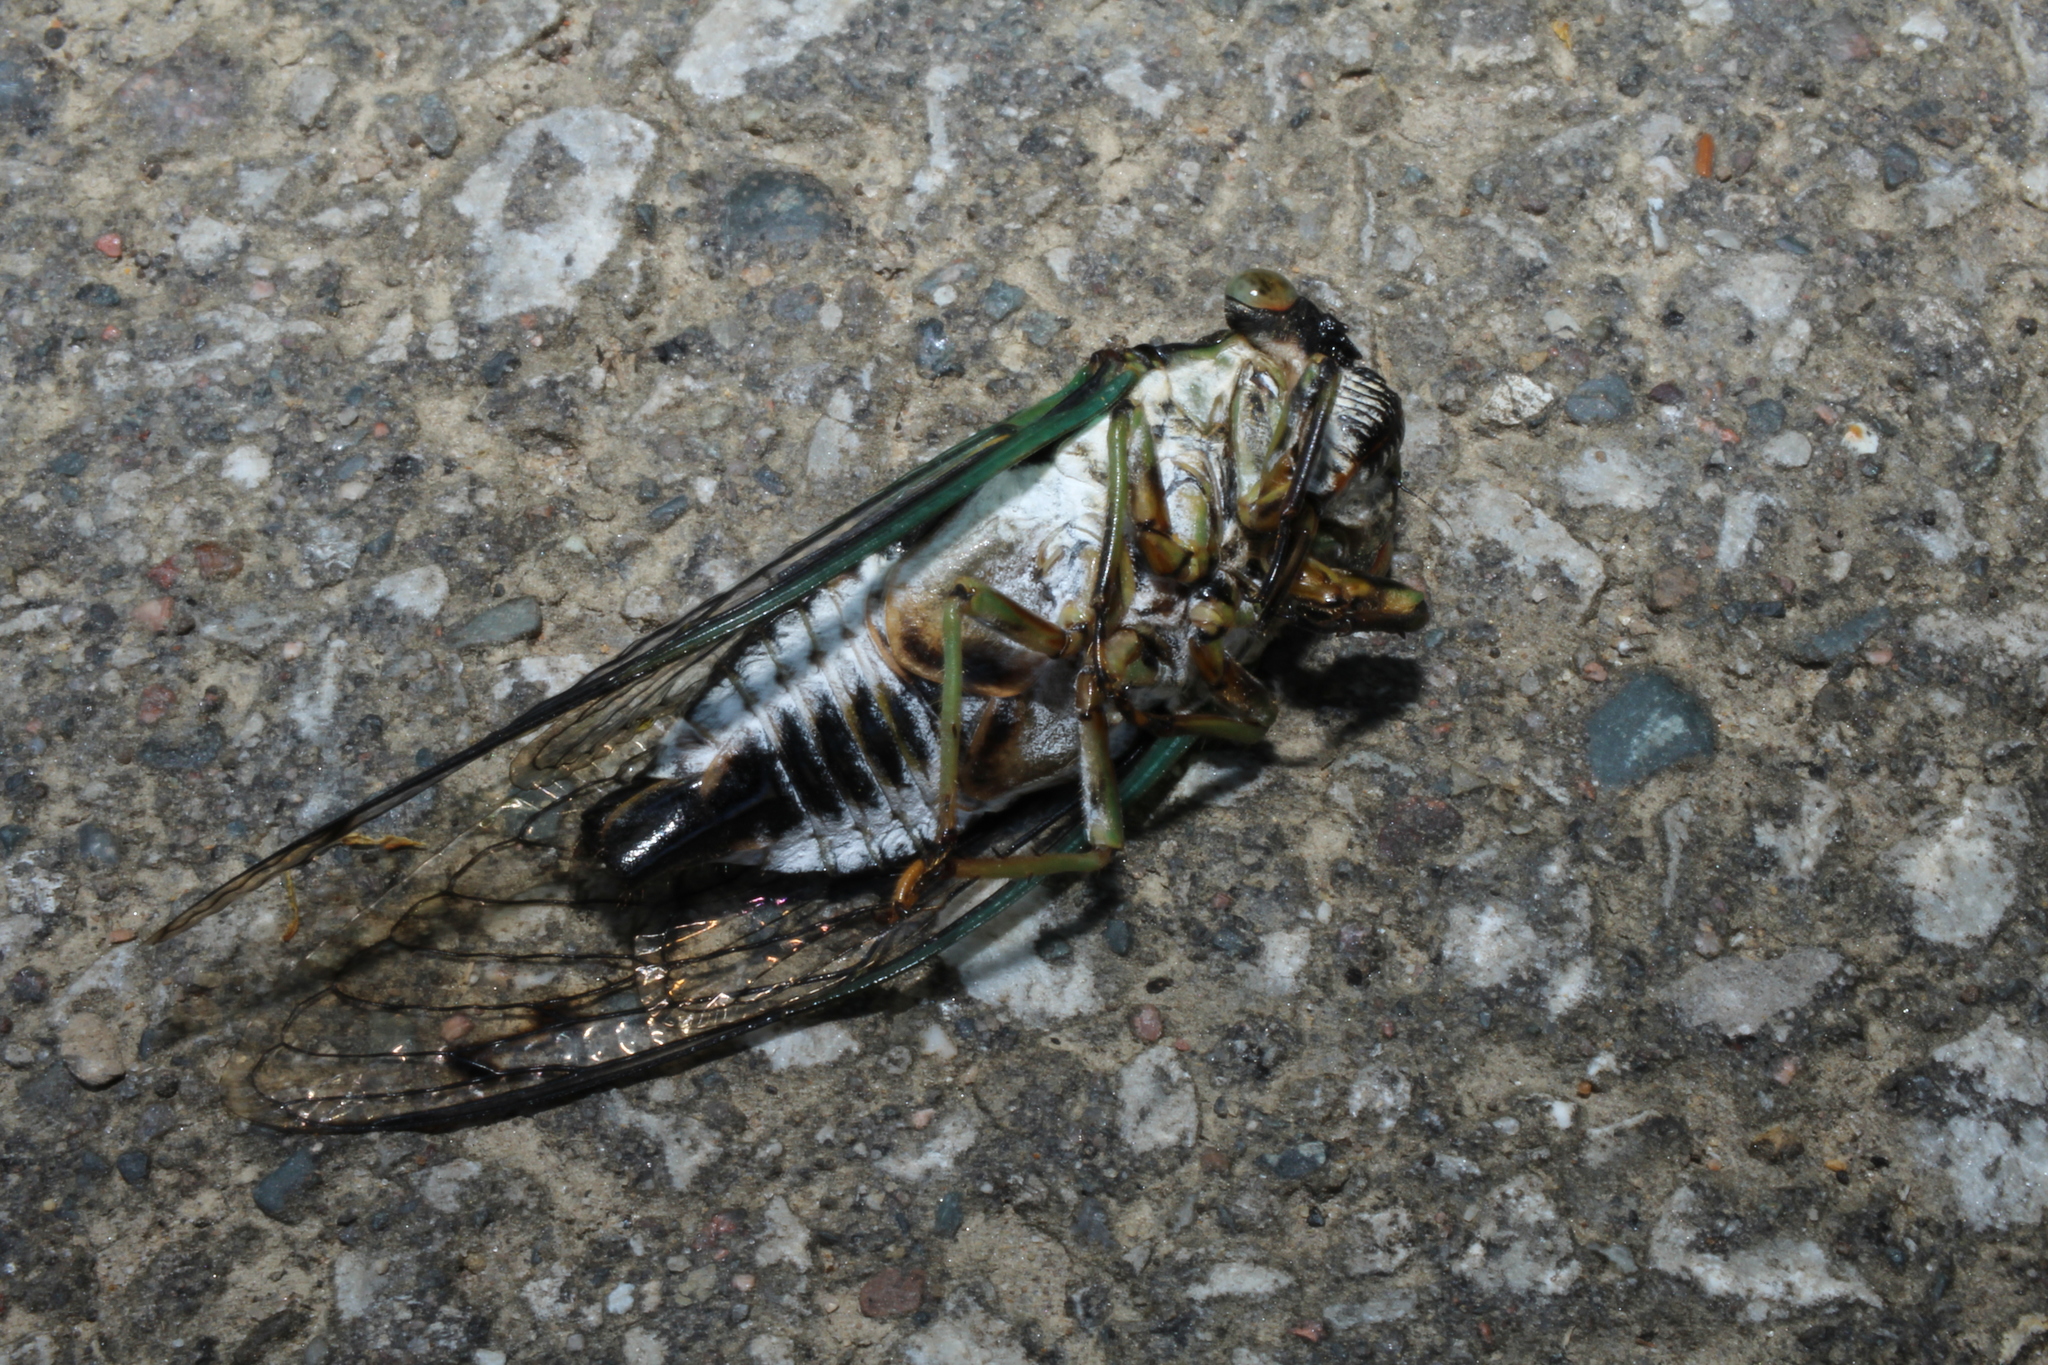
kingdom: Animalia
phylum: Arthropoda
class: Insecta
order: Hemiptera
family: Cicadidae
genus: Neotibicen
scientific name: Neotibicen linnei
